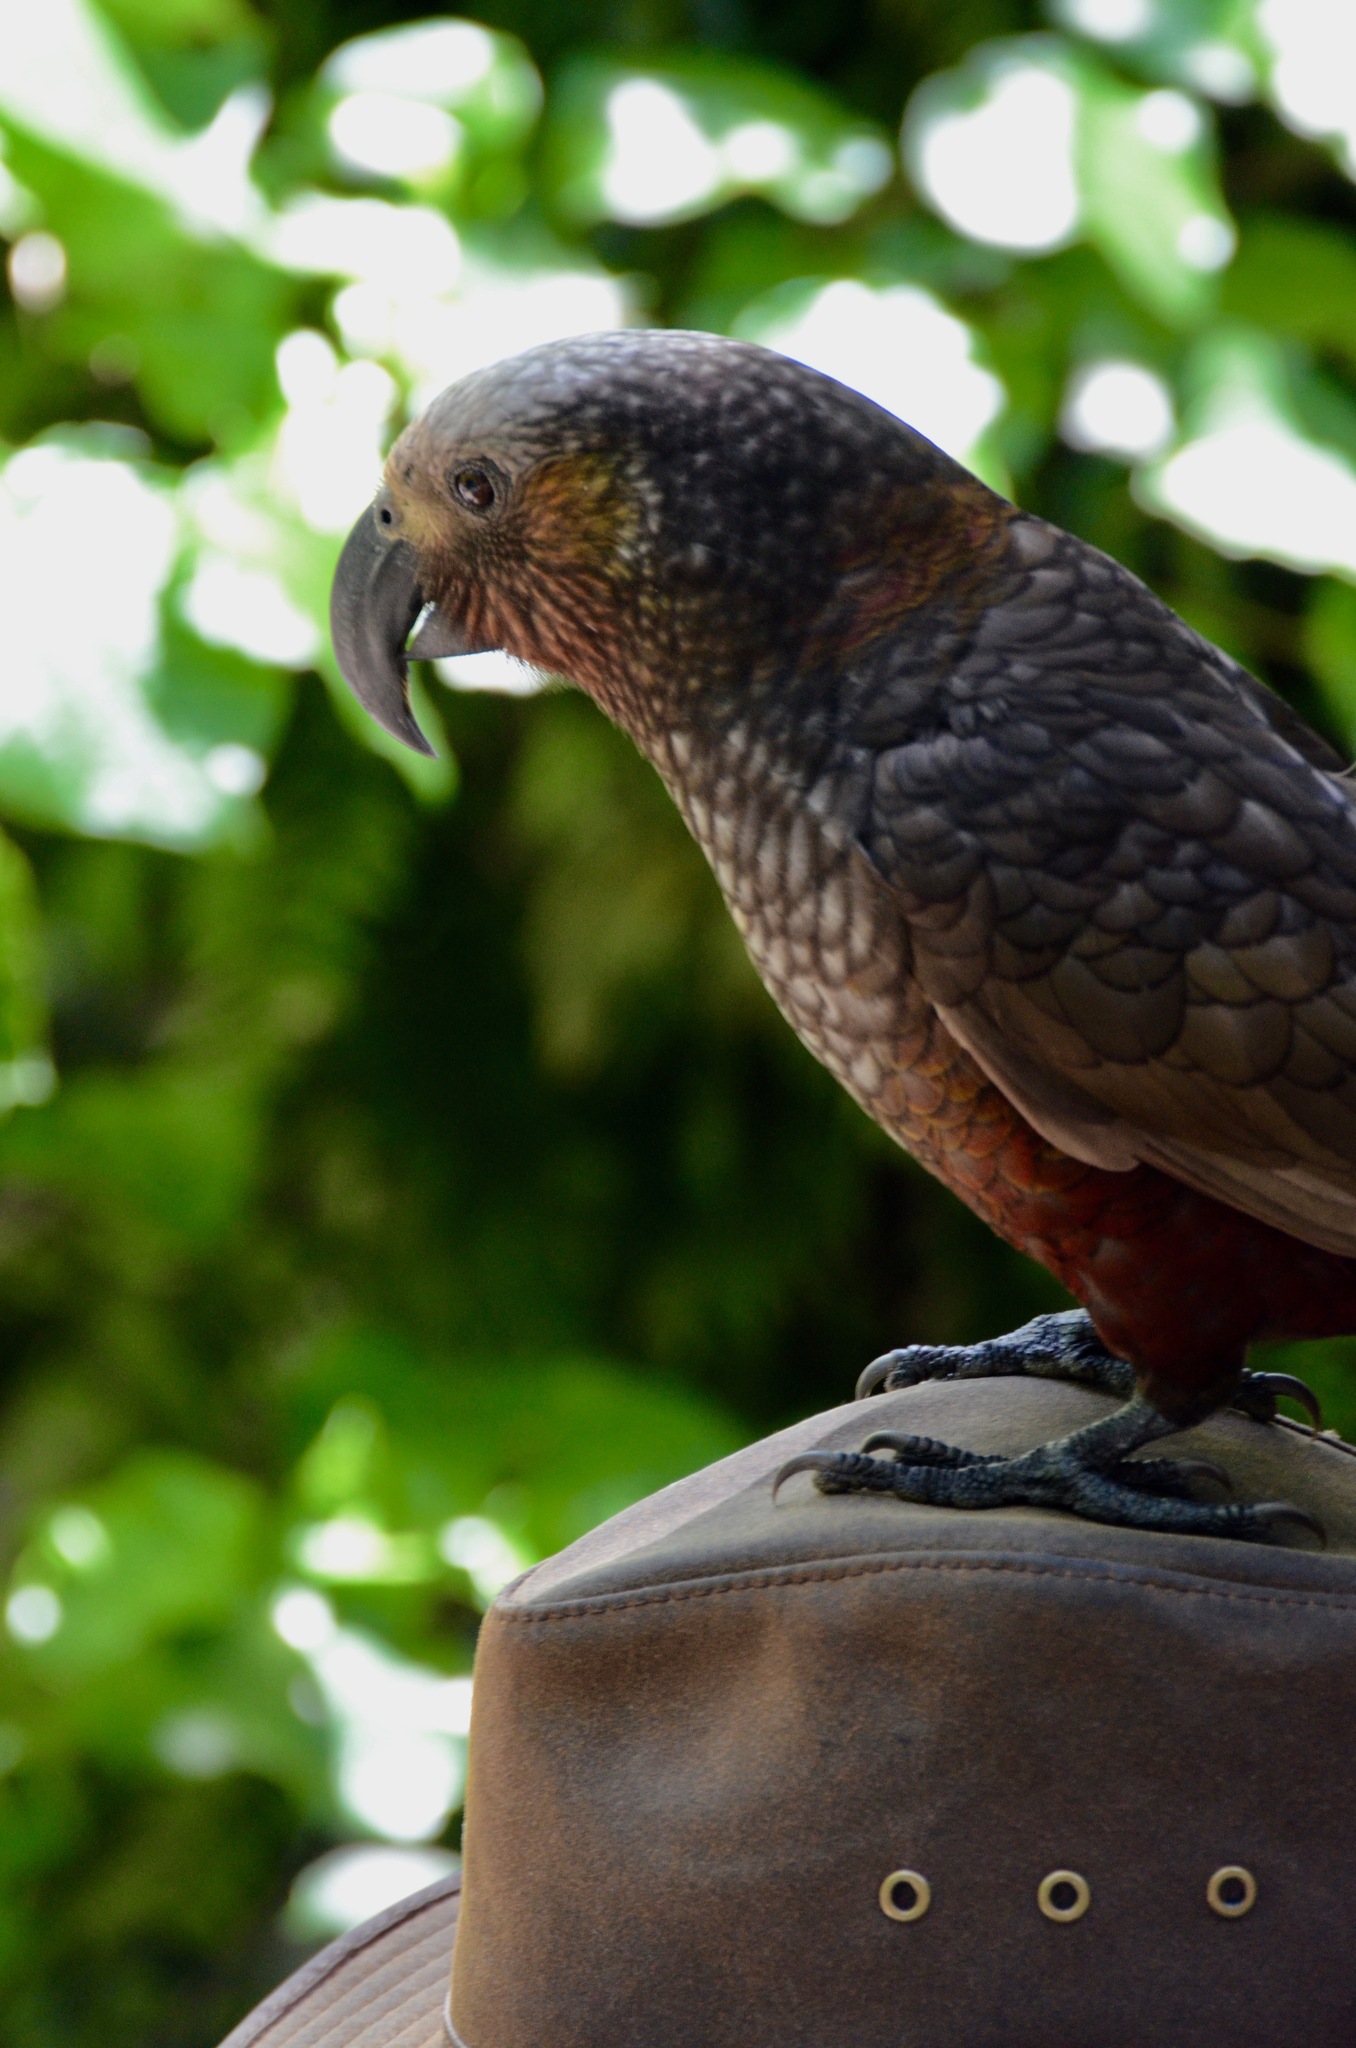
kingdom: Animalia
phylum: Chordata
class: Aves
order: Psittaciformes
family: Psittacidae
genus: Nestor
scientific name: Nestor meridionalis
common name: New zealand kaka
